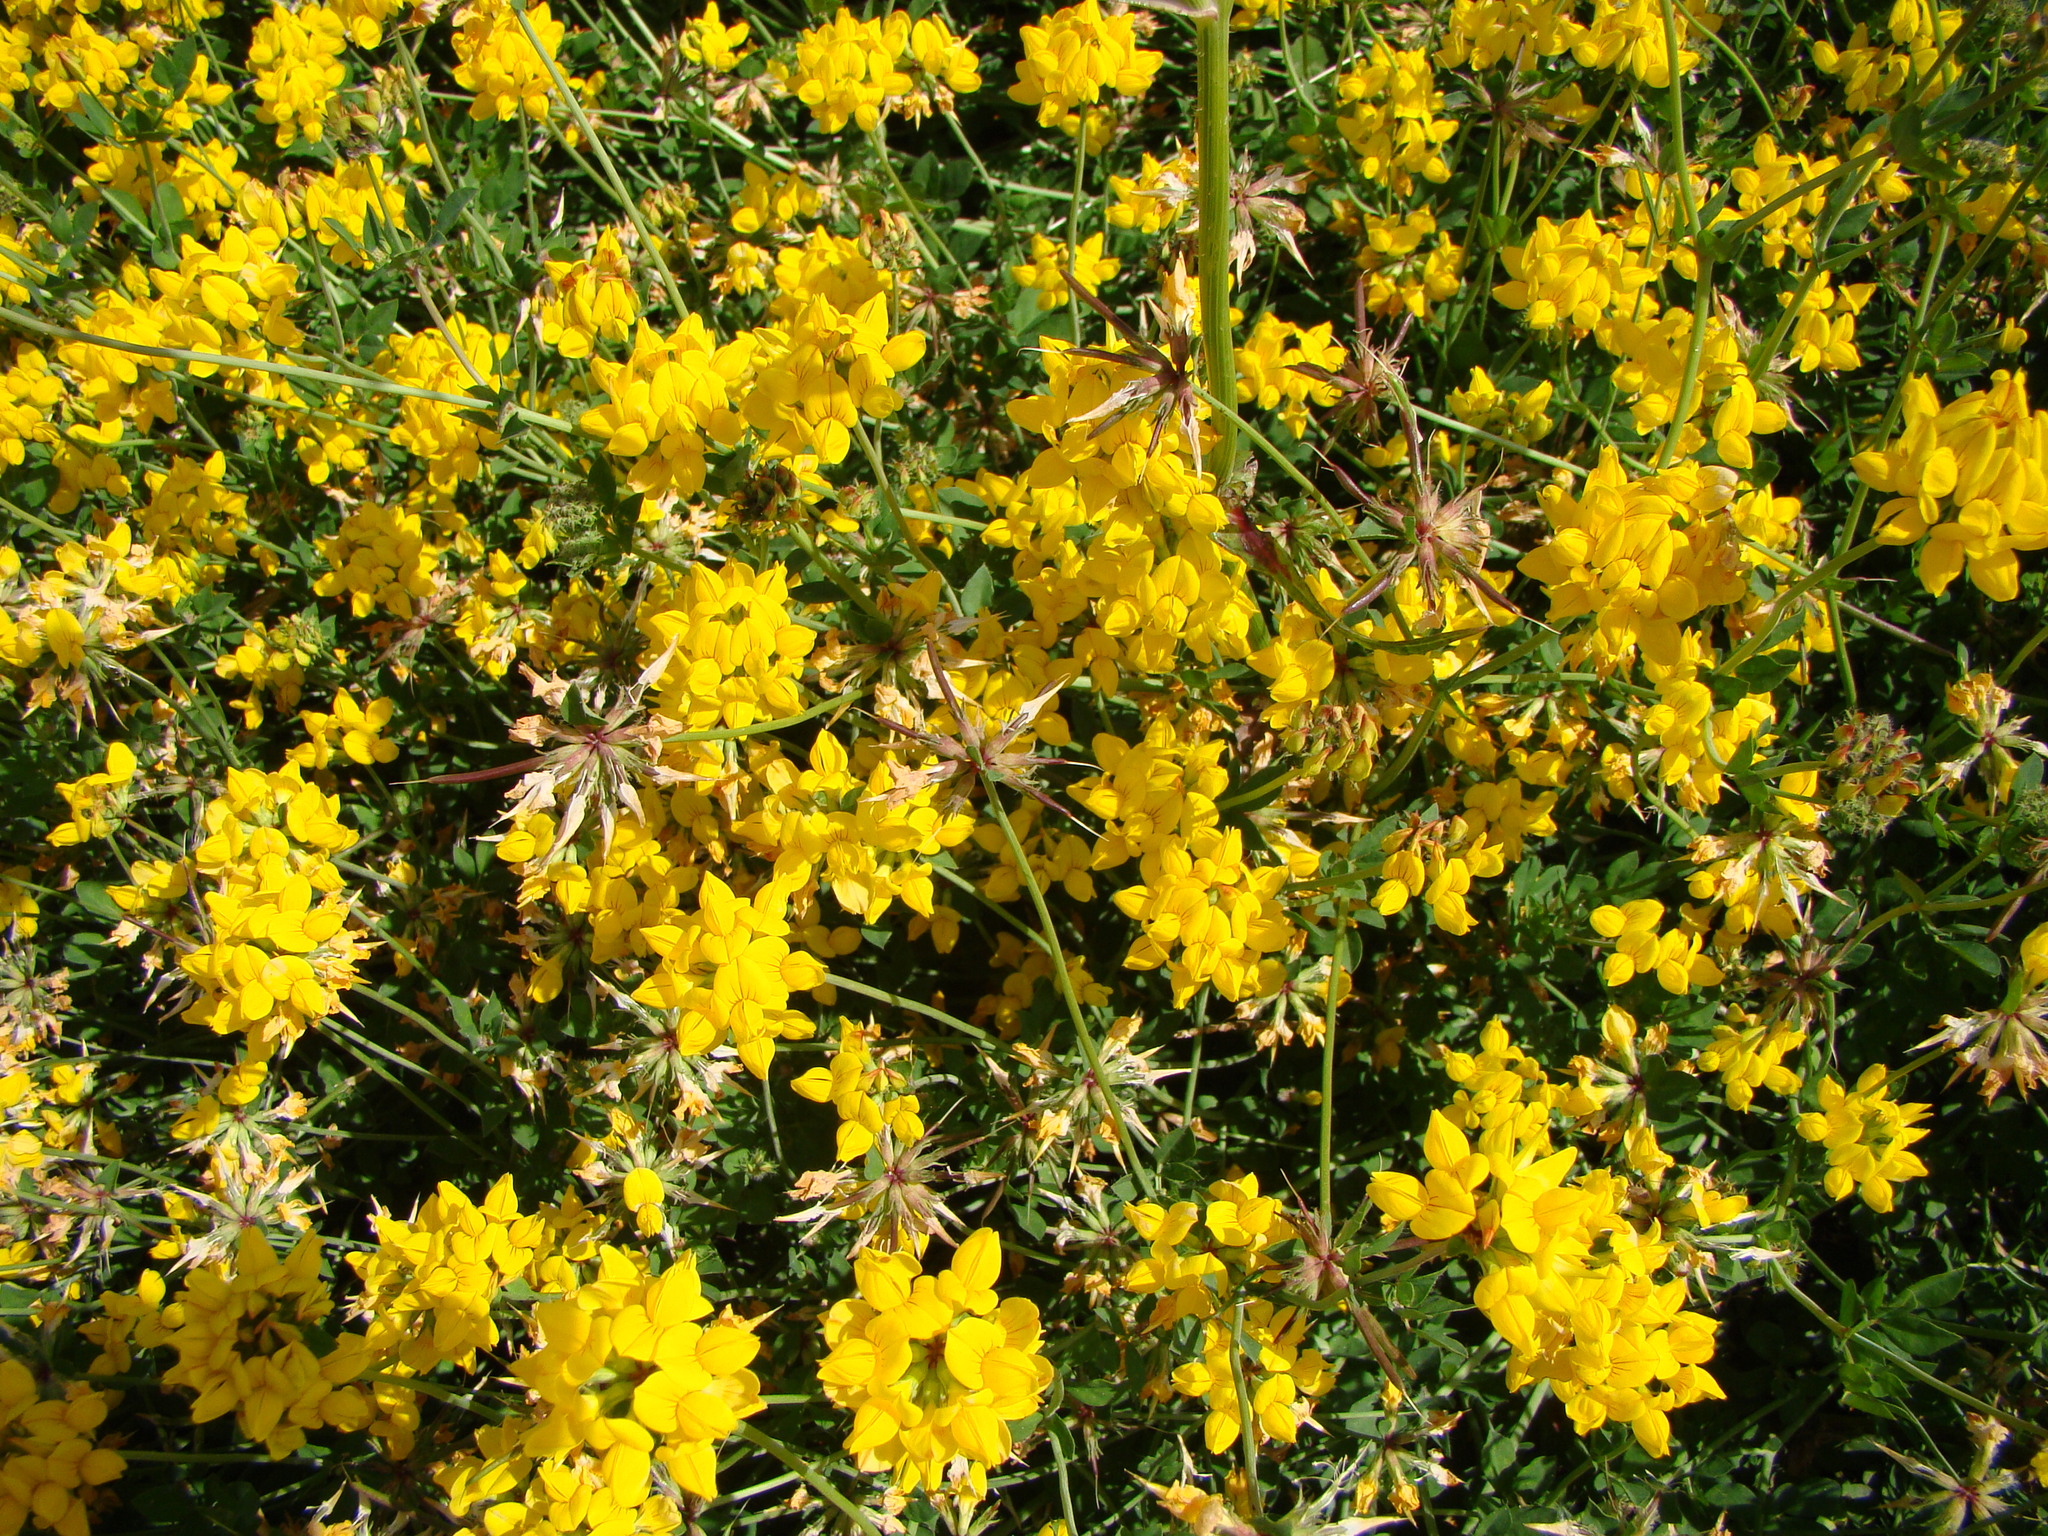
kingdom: Plantae
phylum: Tracheophyta
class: Magnoliopsida
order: Fabales
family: Fabaceae
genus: Lotus
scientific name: Lotus pedunculatus
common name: Greater birdsfoot-trefoil
